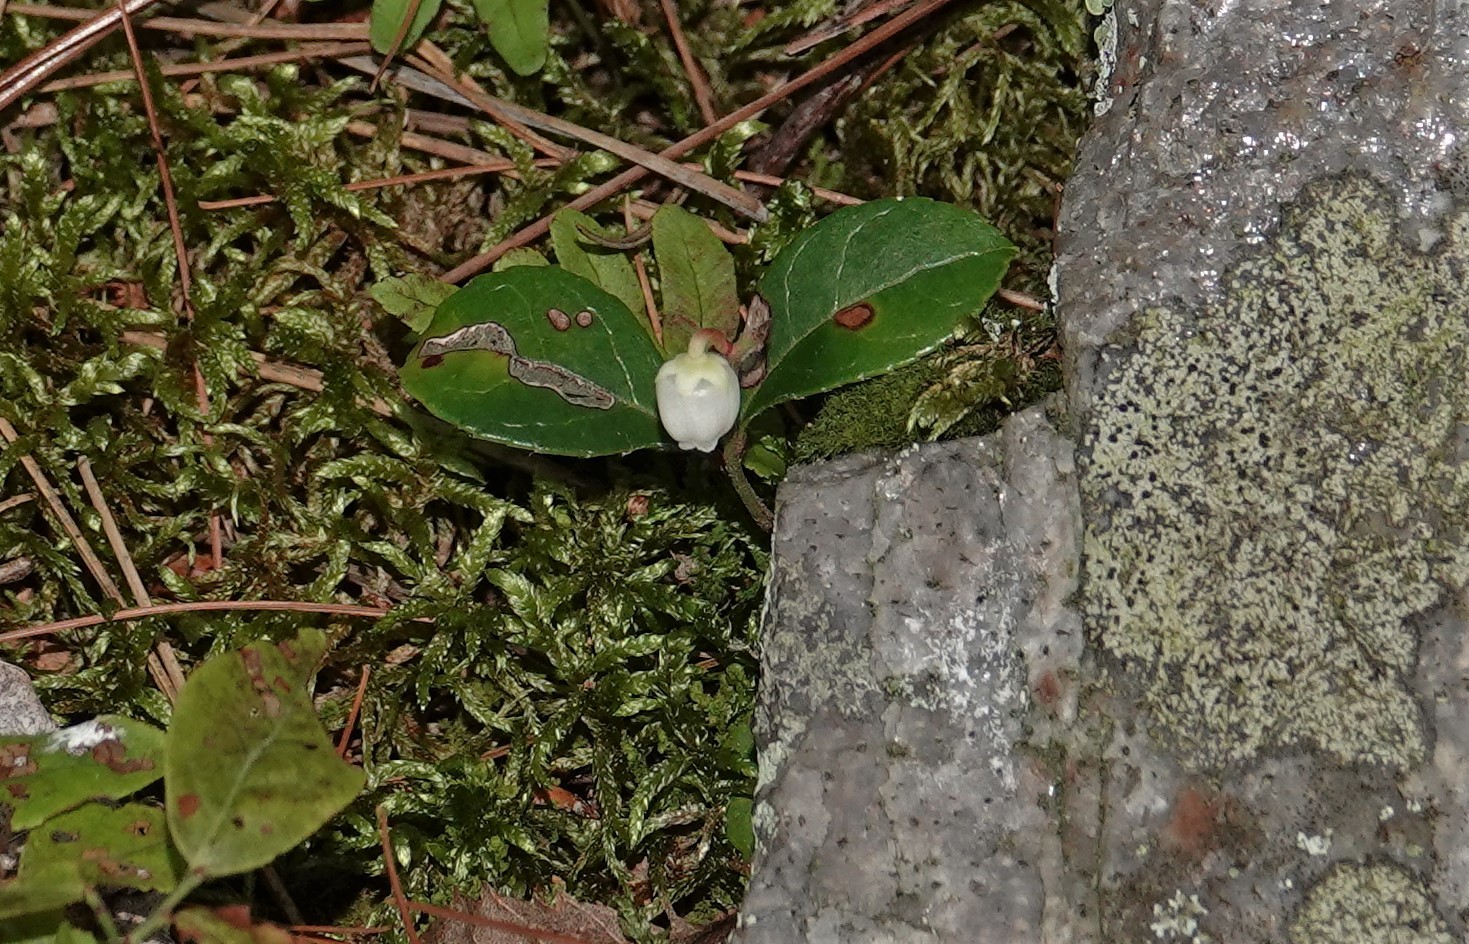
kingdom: Plantae
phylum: Tracheophyta
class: Magnoliopsida
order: Ericales
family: Ericaceae
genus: Gaultheria
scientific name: Gaultheria procumbens
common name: Checkerberry
